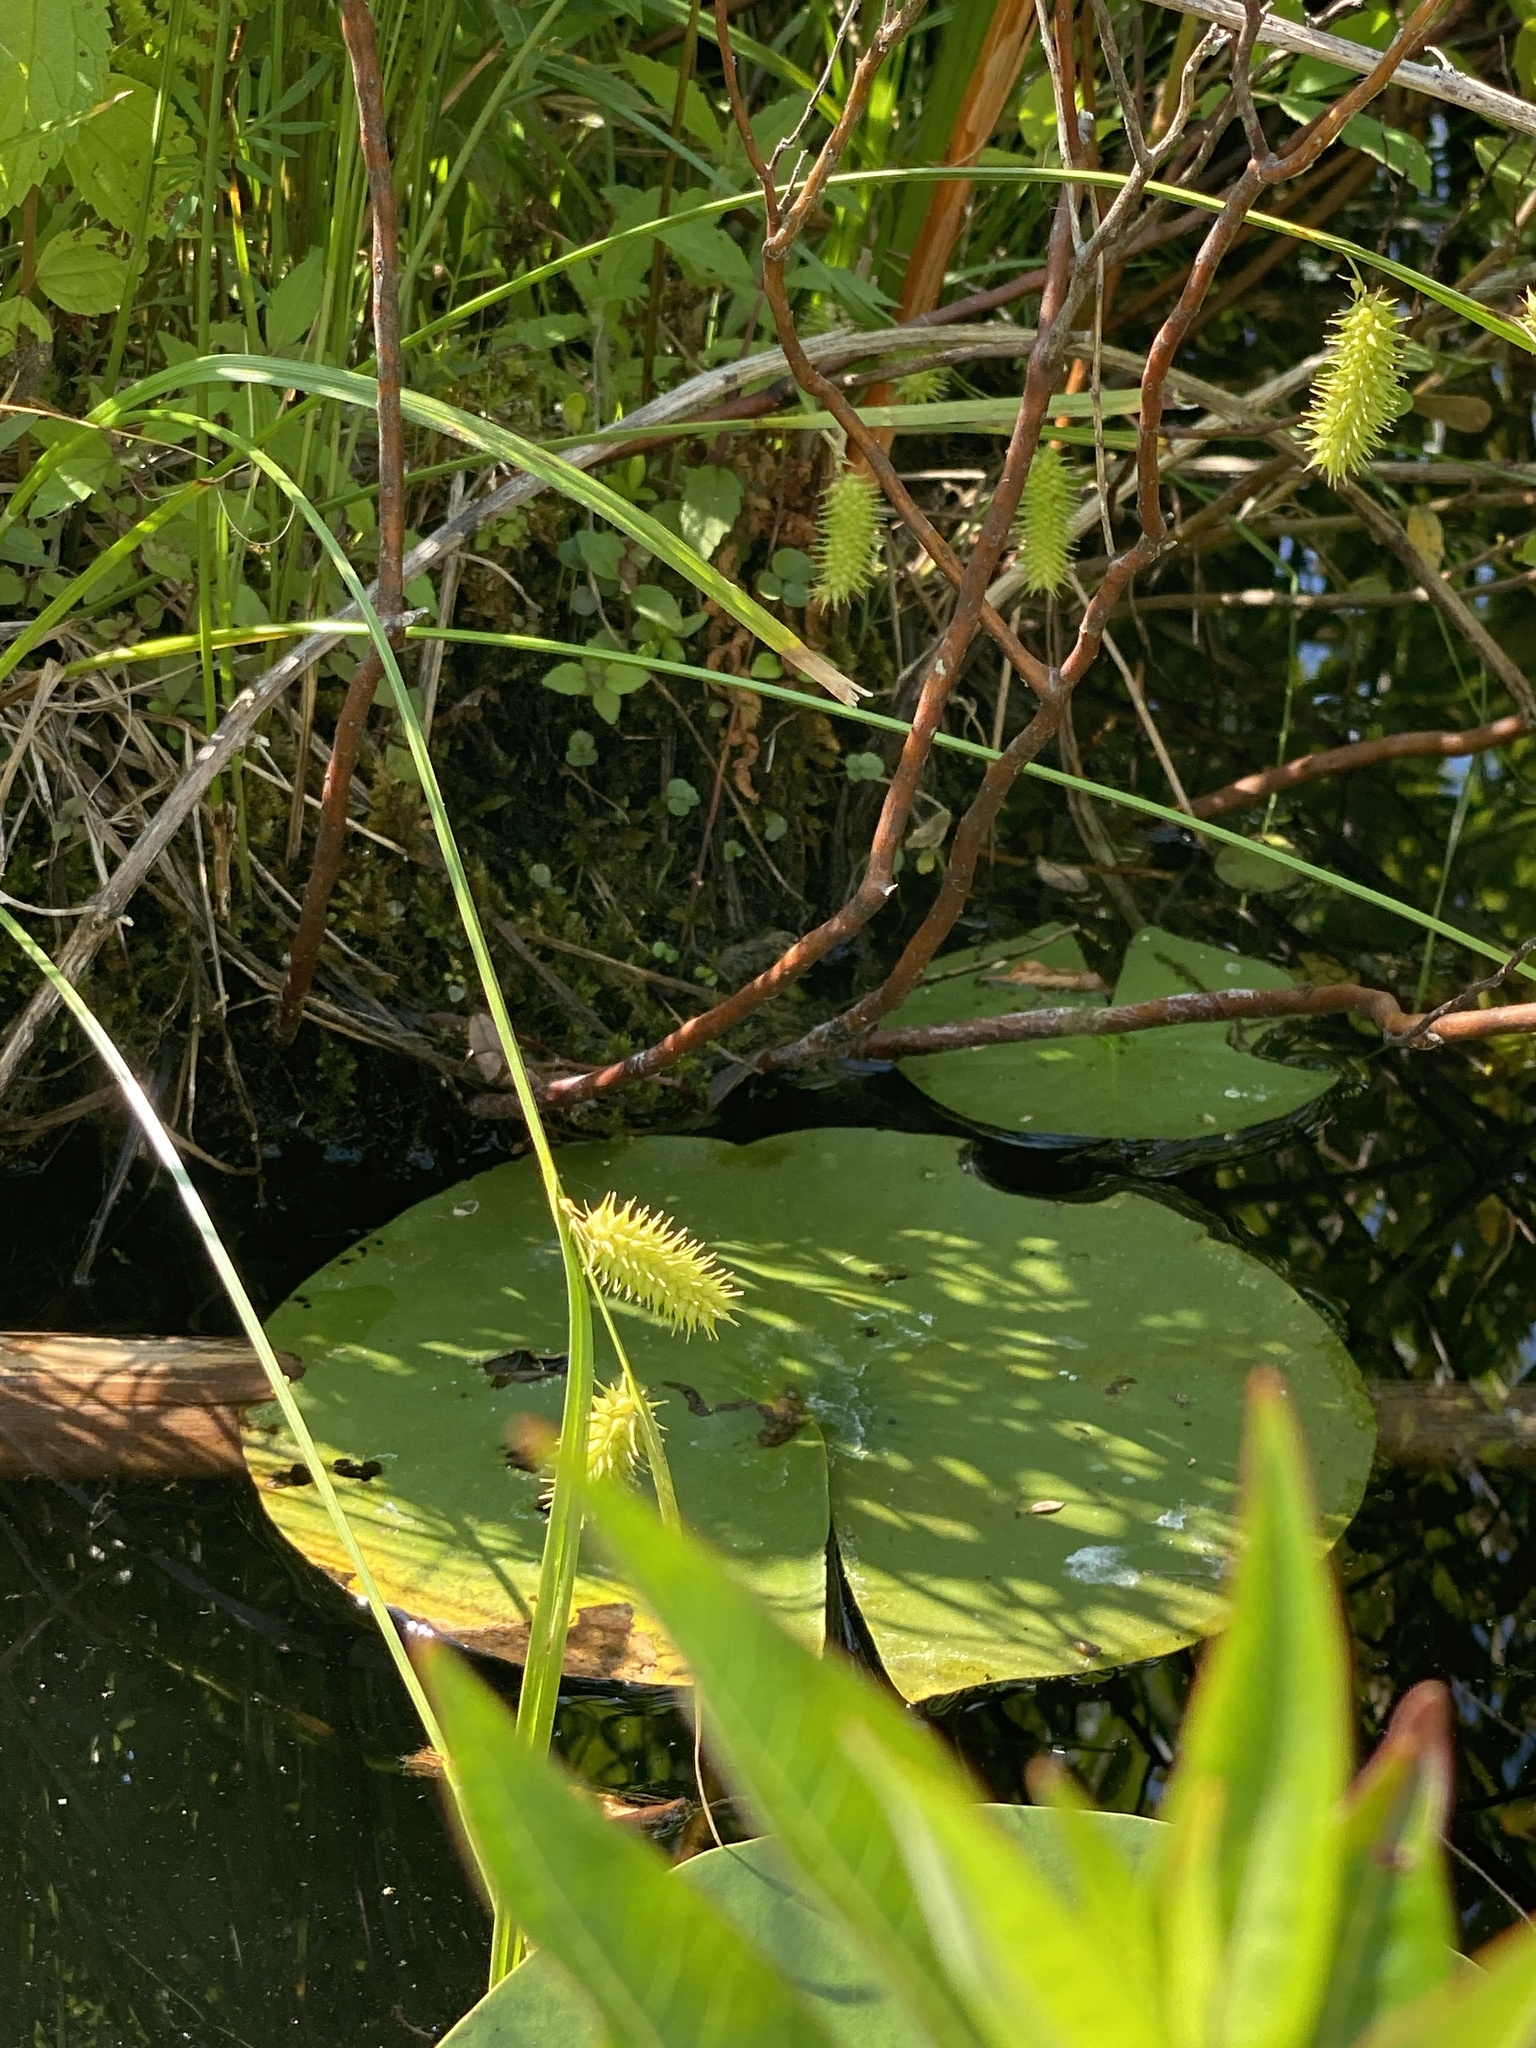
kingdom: Plantae
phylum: Tracheophyta
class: Liliopsida
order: Poales
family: Cyperaceae
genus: Carex
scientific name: Carex hystericina
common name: Bottlebrush sedge
